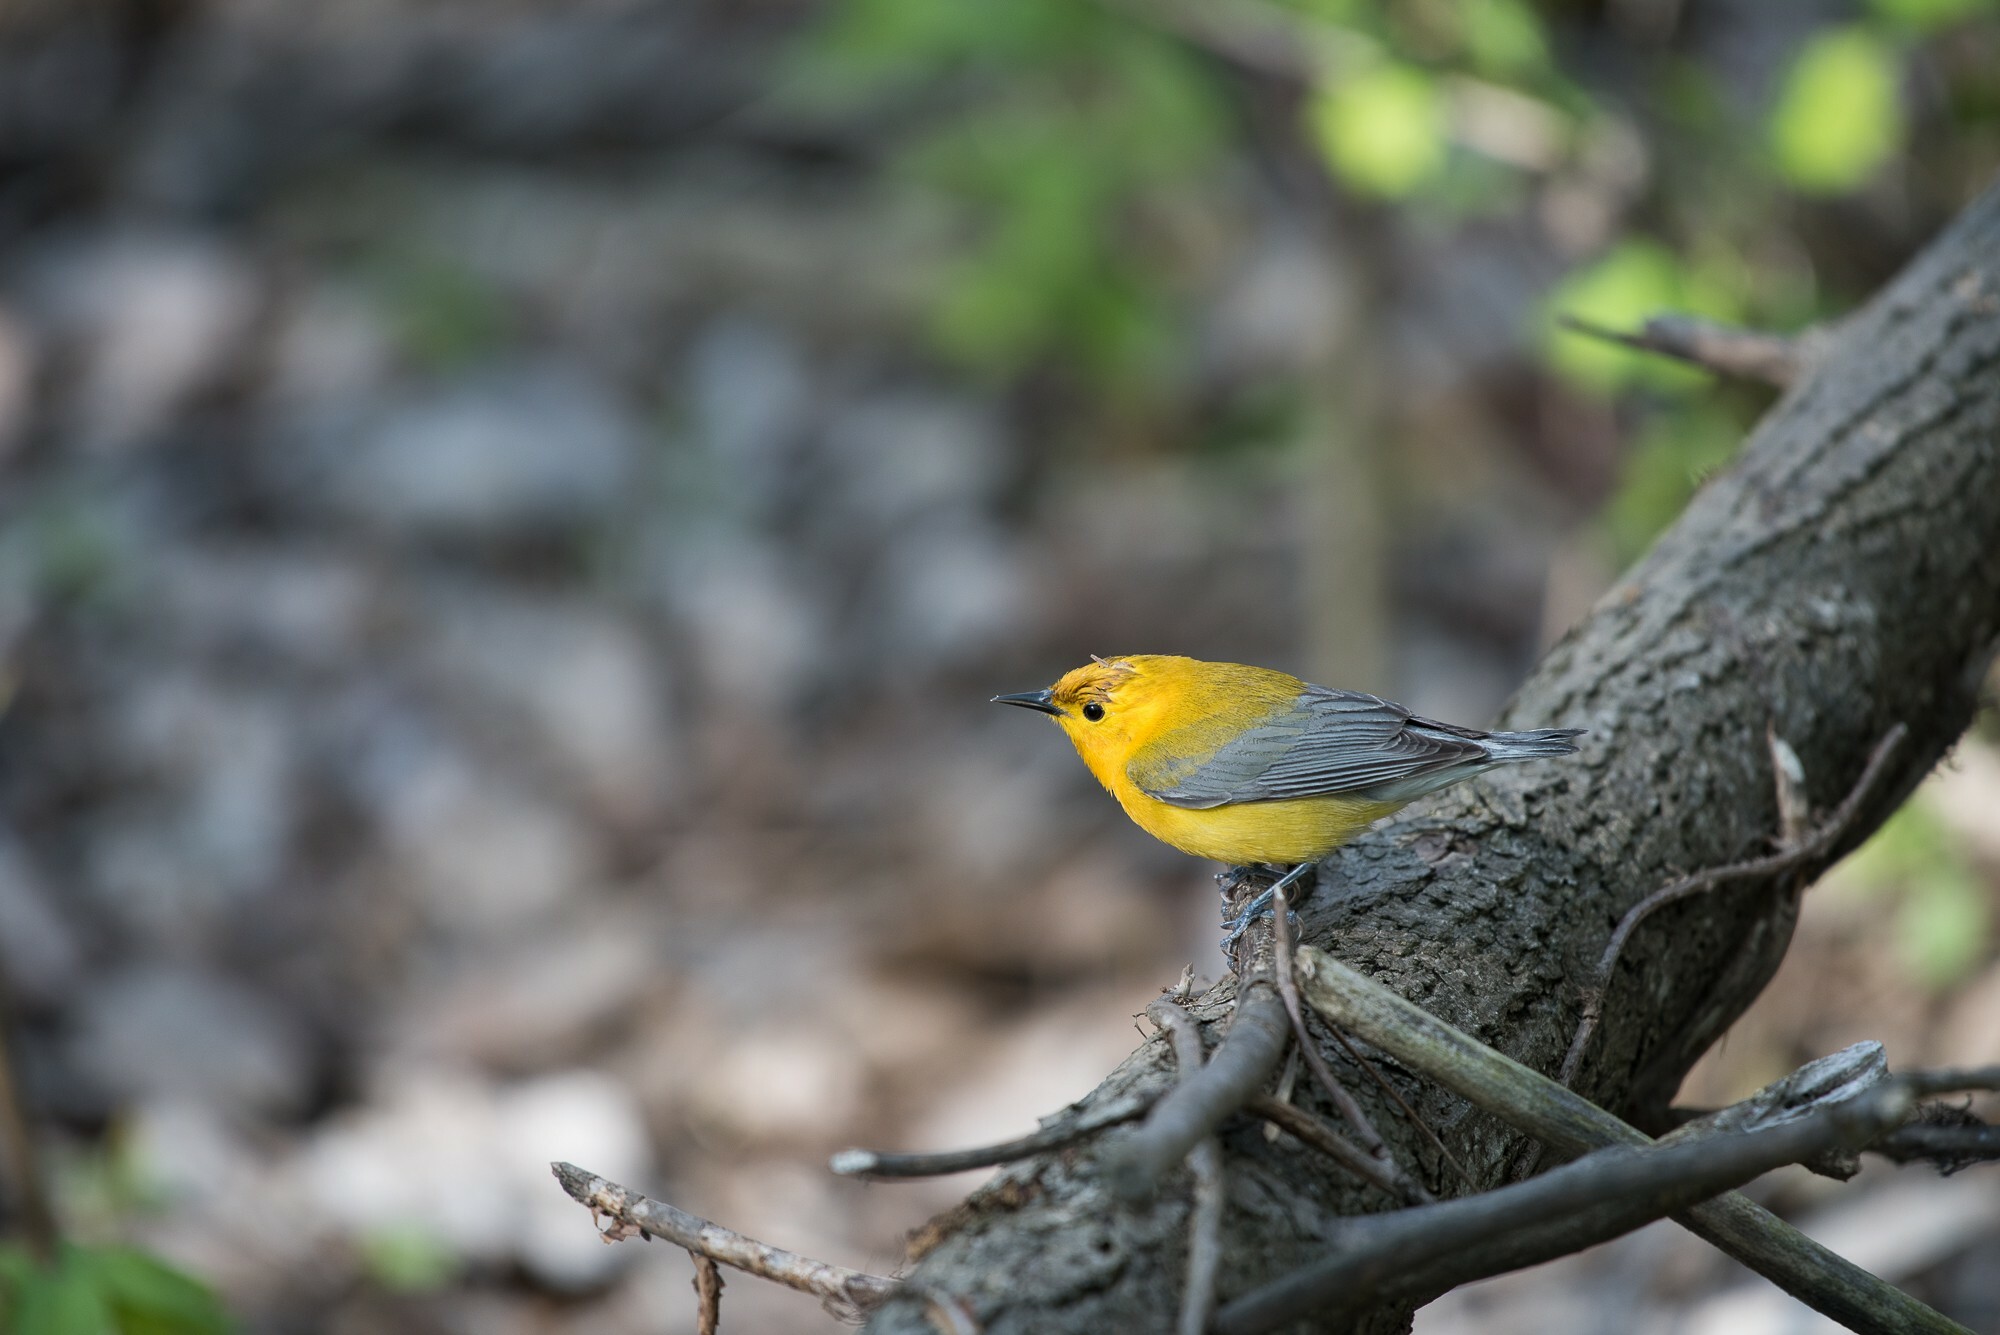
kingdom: Animalia
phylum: Chordata
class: Aves
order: Passeriformes
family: Parulidae
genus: Protonotaria
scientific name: Protonotaria citrea
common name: Prothonotary warbler
